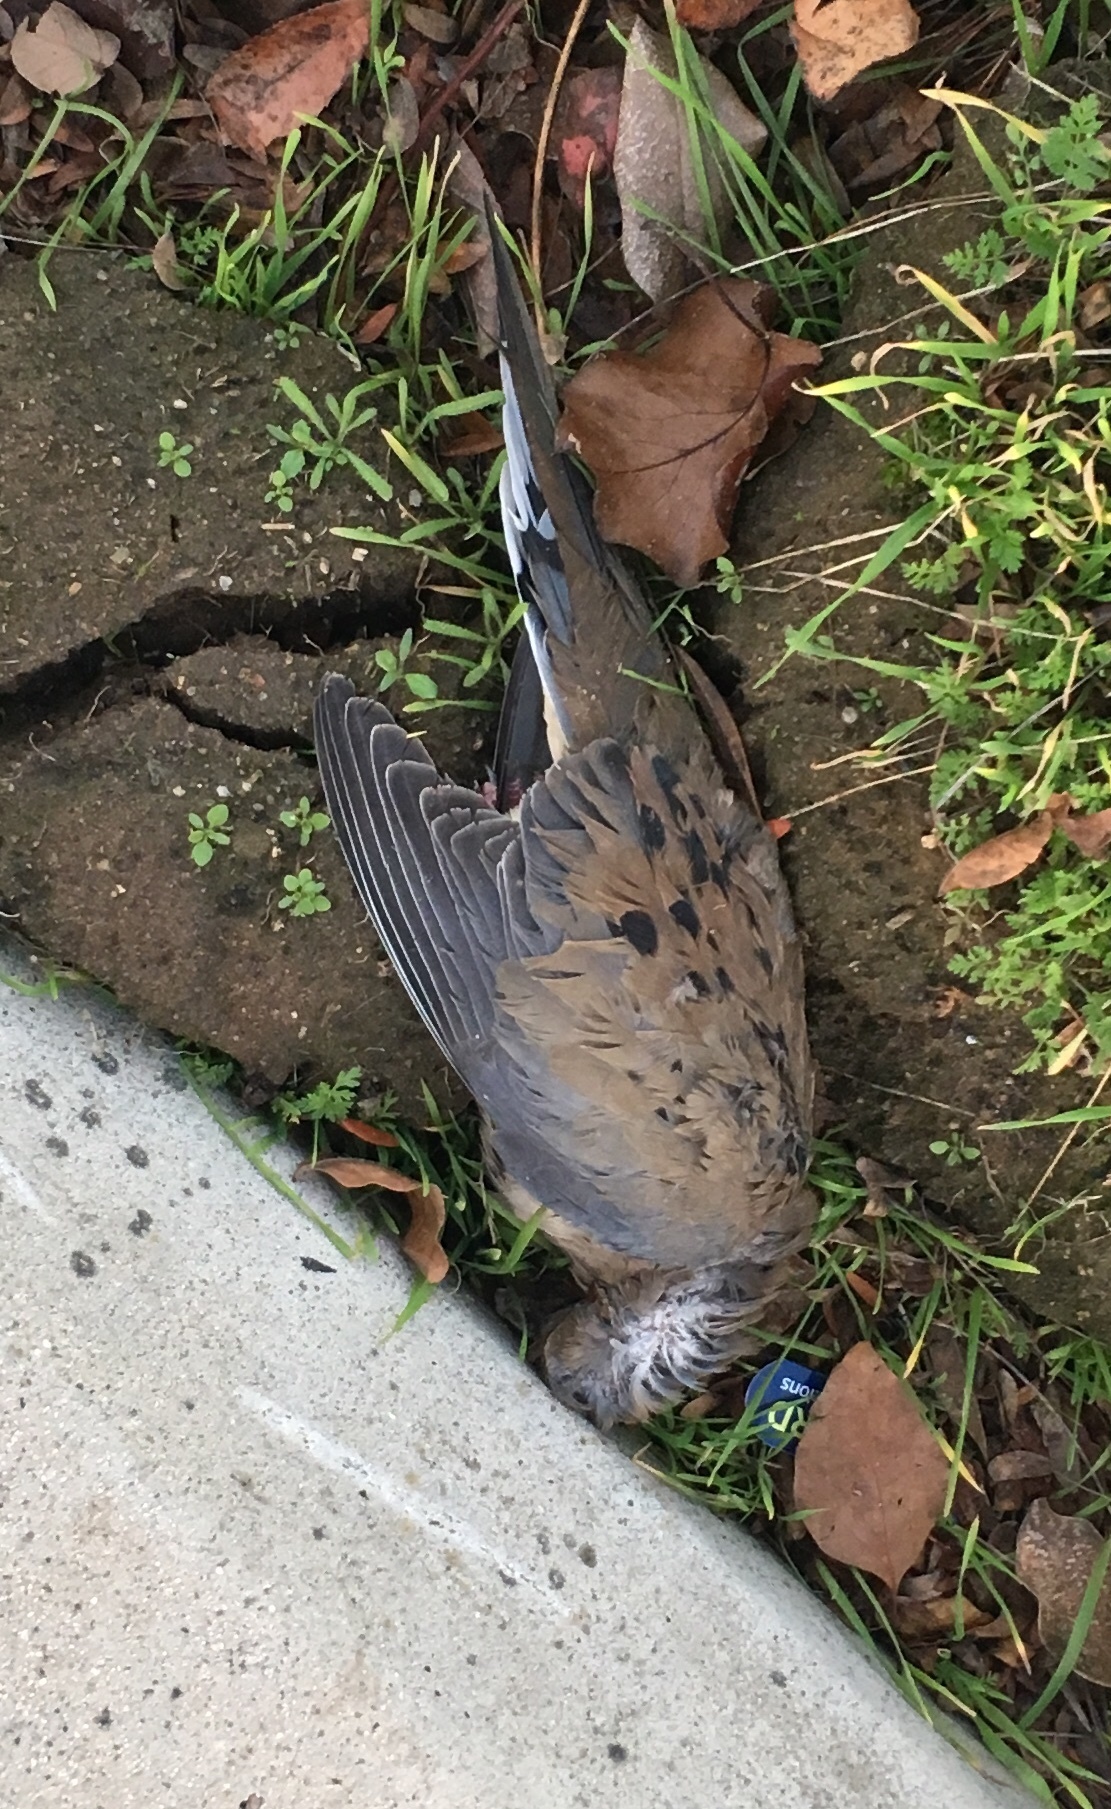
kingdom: Animalia
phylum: Chordata
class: Aves
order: Columbiformes
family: Columbidae
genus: Zenaida
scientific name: Zenaida macroura
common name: Mourning dove
